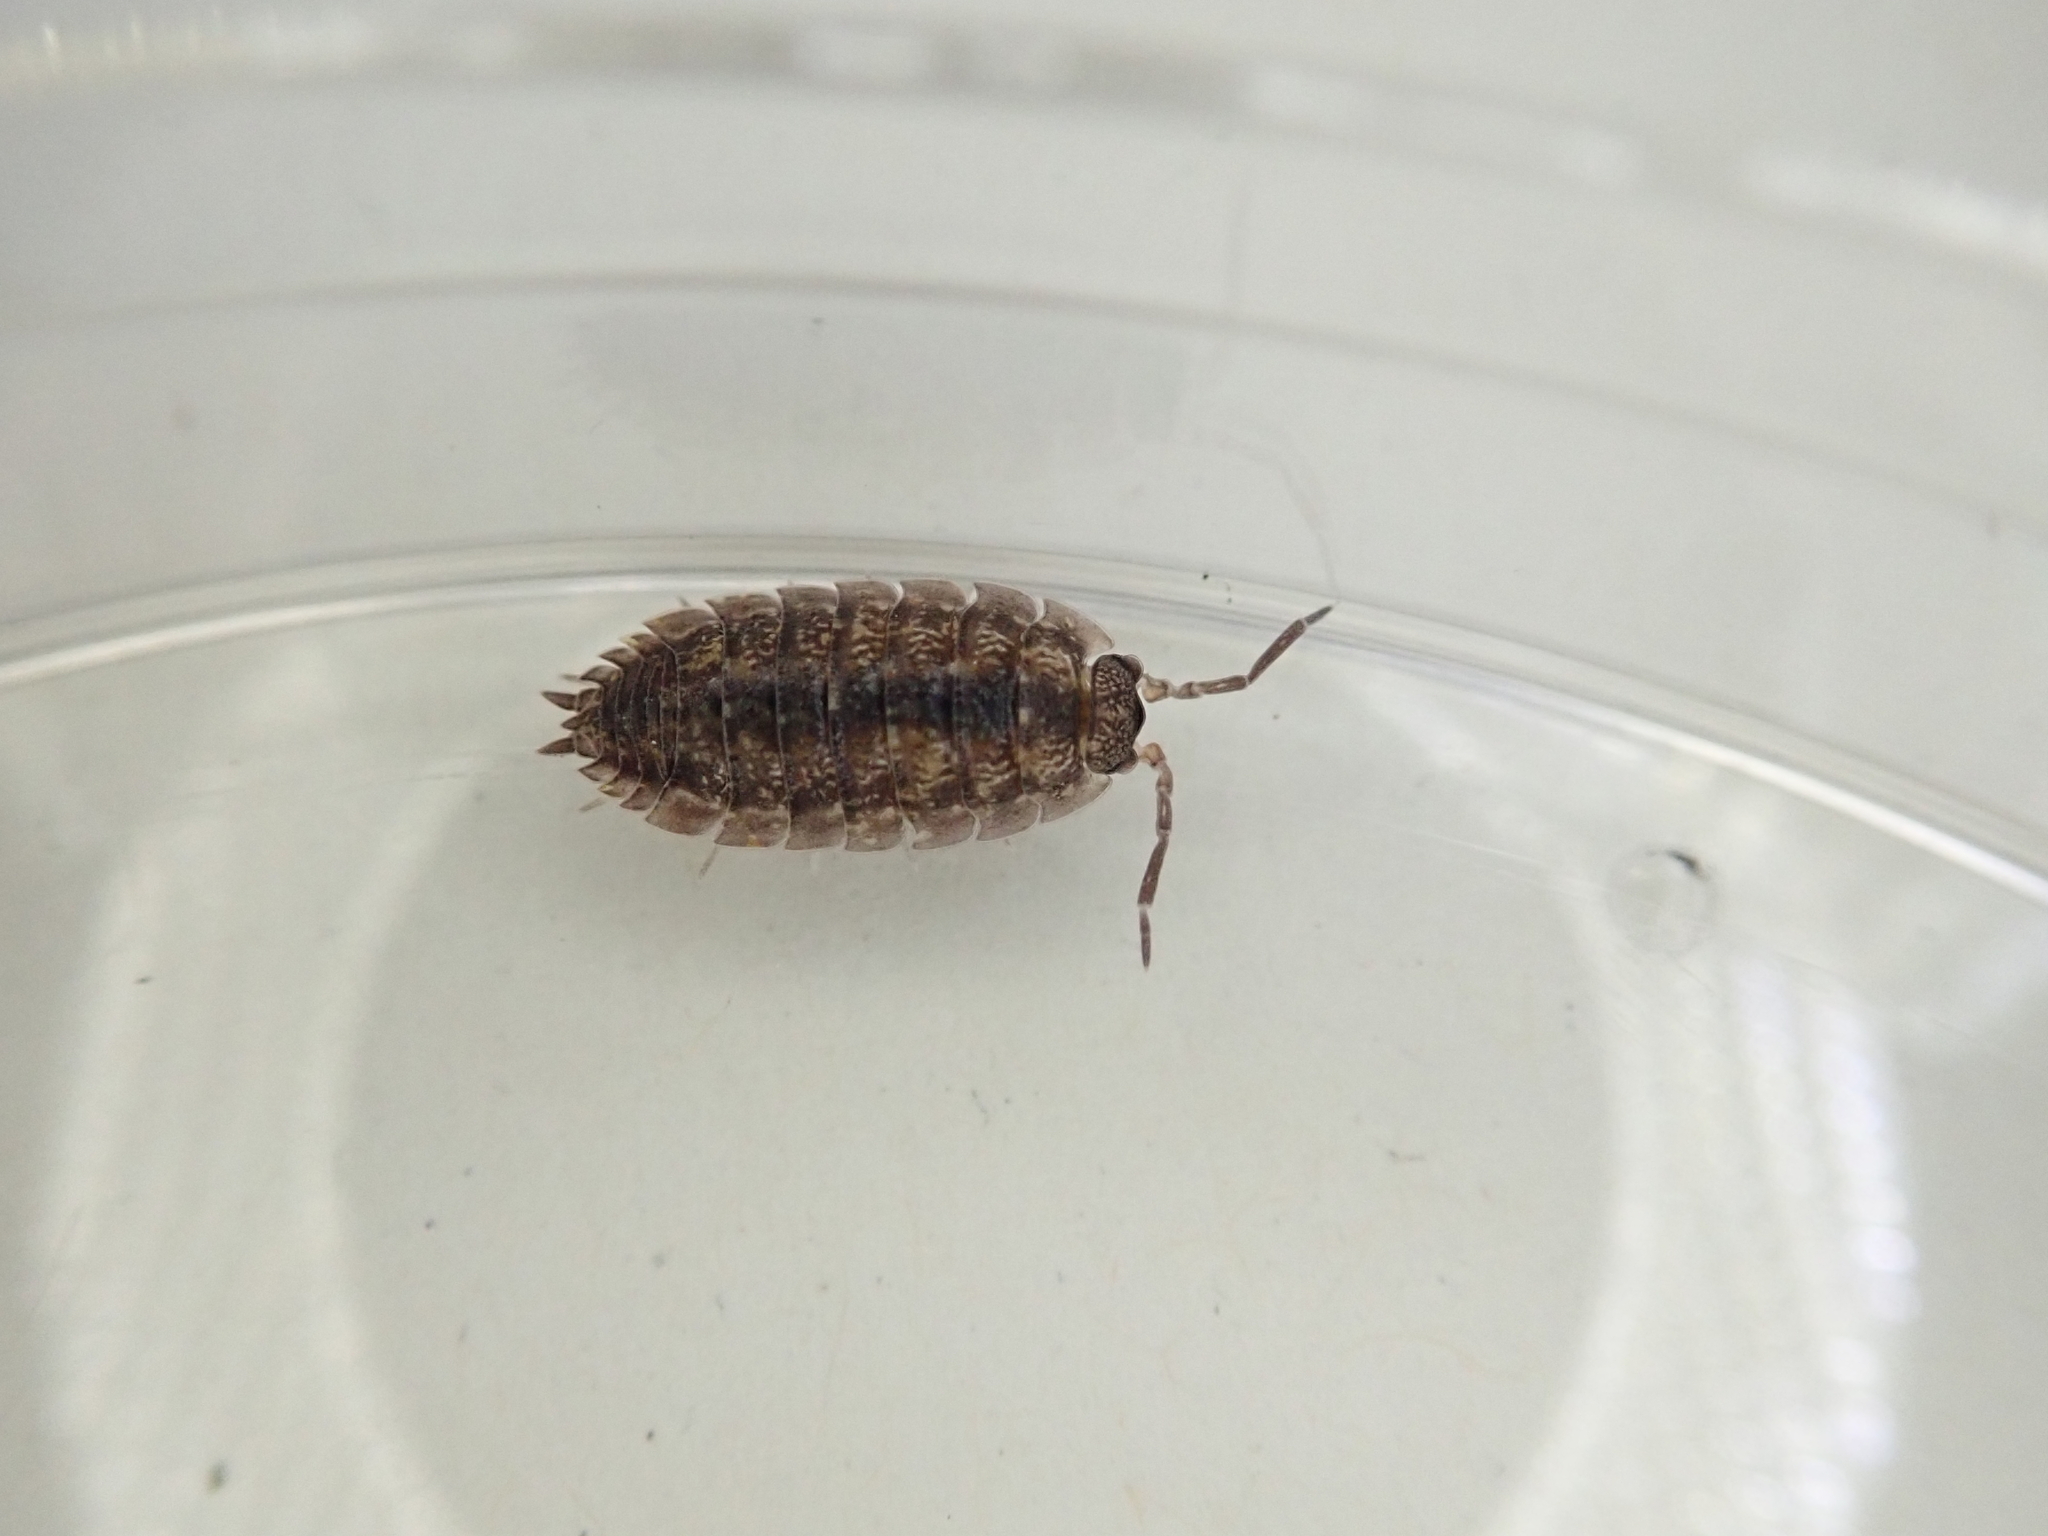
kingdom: Animalia
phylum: Arthropoda
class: Malacostraca
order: Isopoda
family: Porcellionidae
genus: Porcellio
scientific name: Porcellio scaber
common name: Common rough woodlouse
